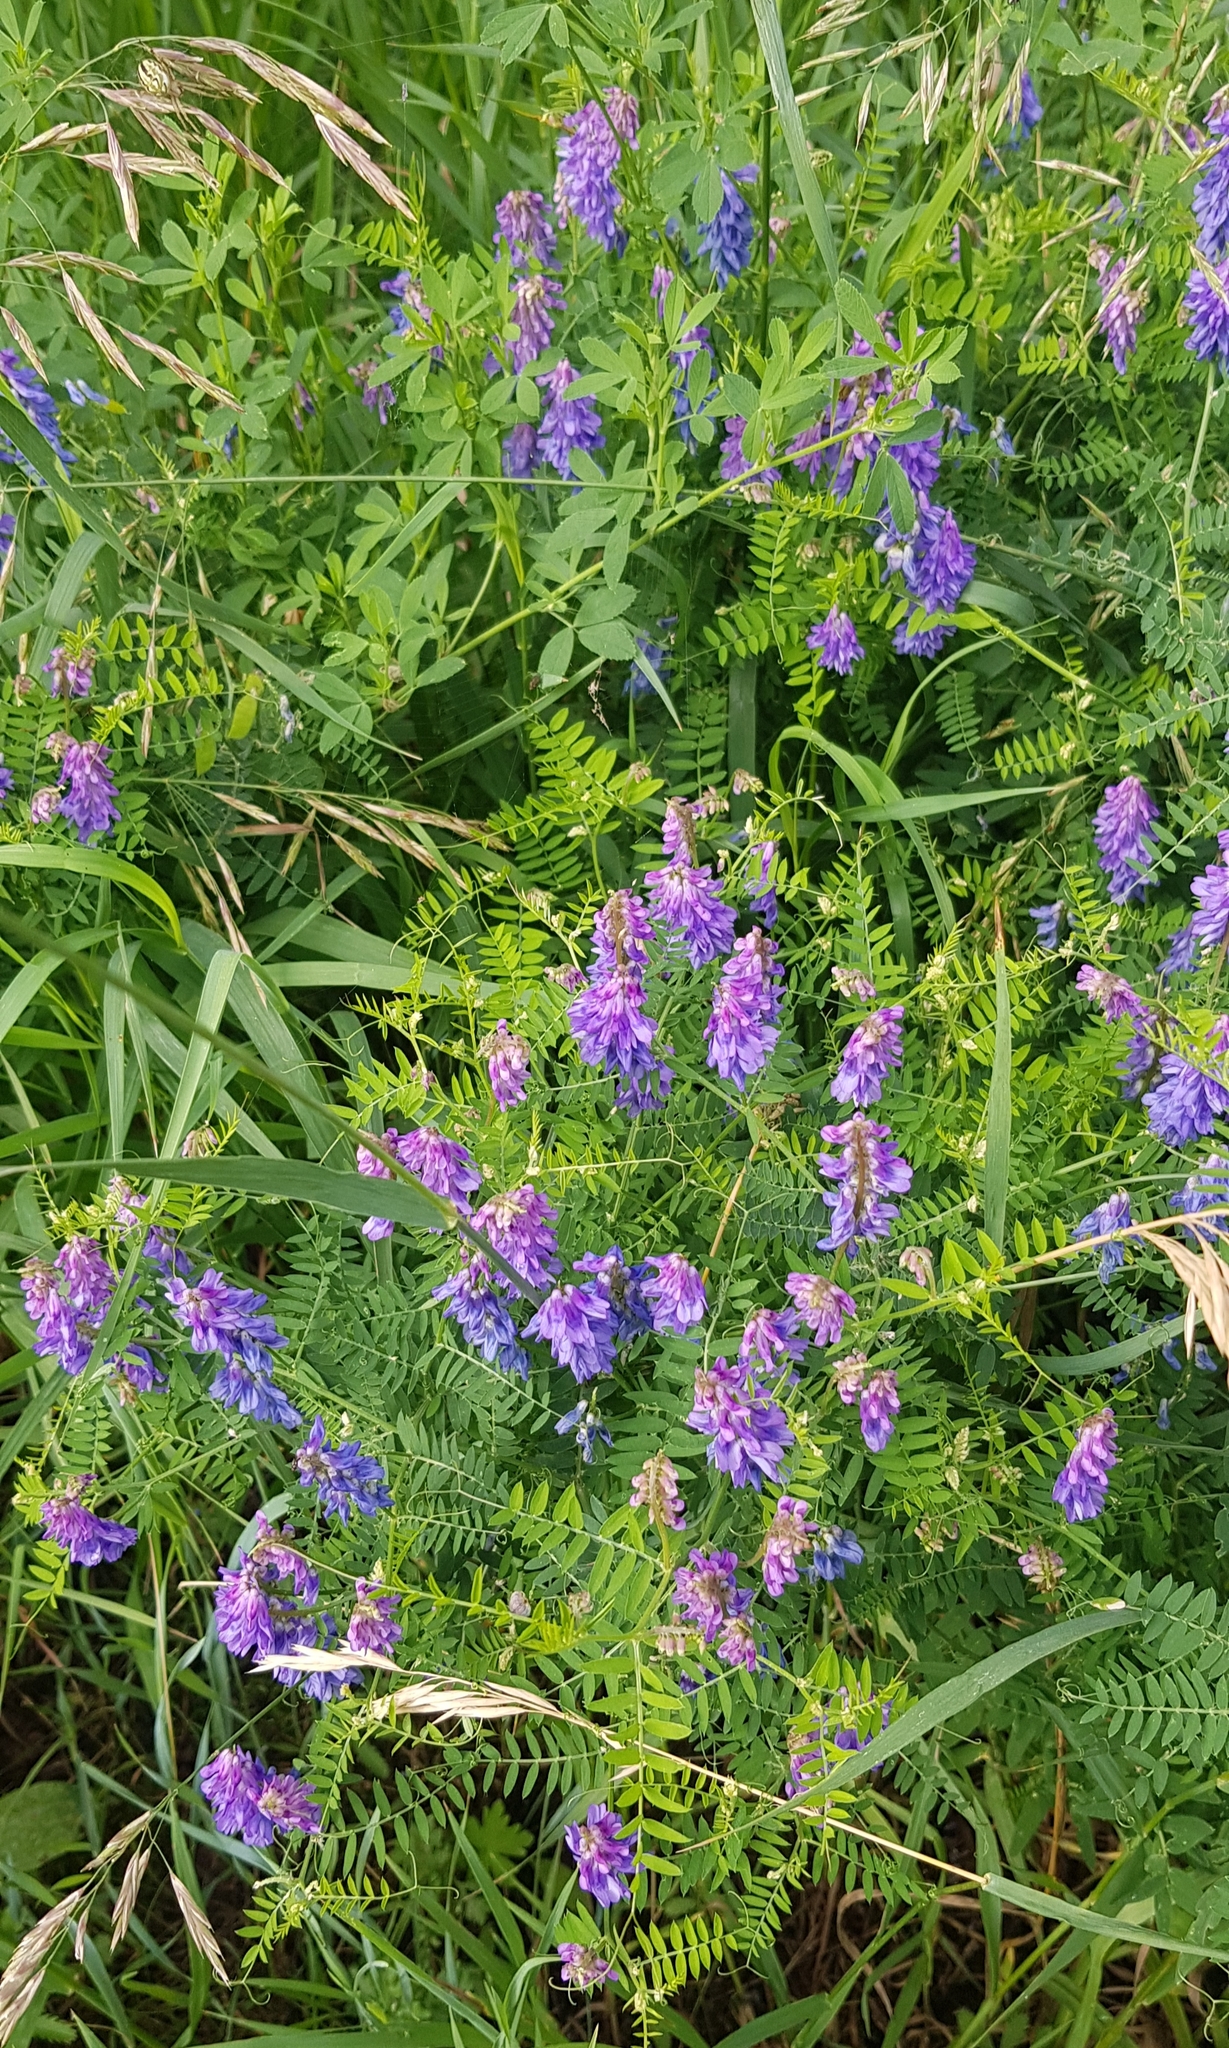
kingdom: Plantae
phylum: Tracheophyta
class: Magnoliopsida
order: Fabales
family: Fabaceae
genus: Vicia
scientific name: Vicia cracca
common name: Bird vetch
